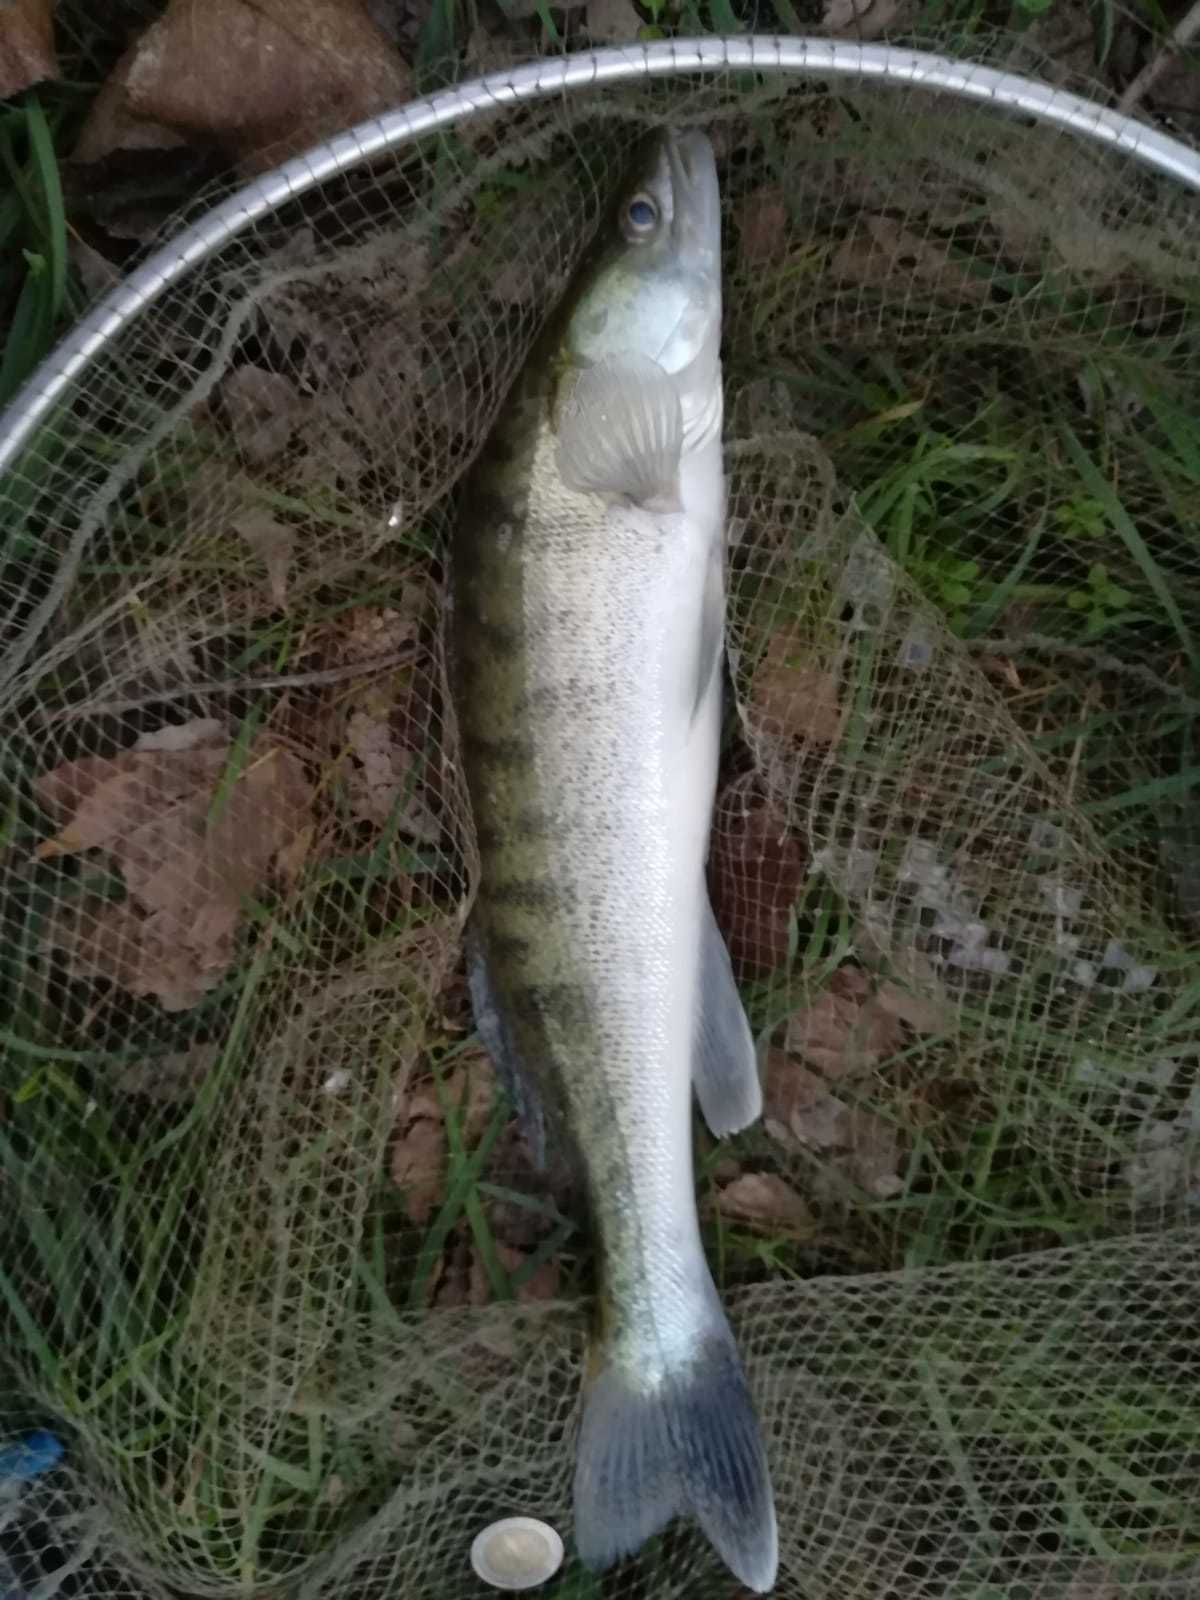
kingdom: Animalia
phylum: Chordata
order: Perciformes
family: Percidae
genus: Sander
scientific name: Sander lucioperca
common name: Pikeperch
